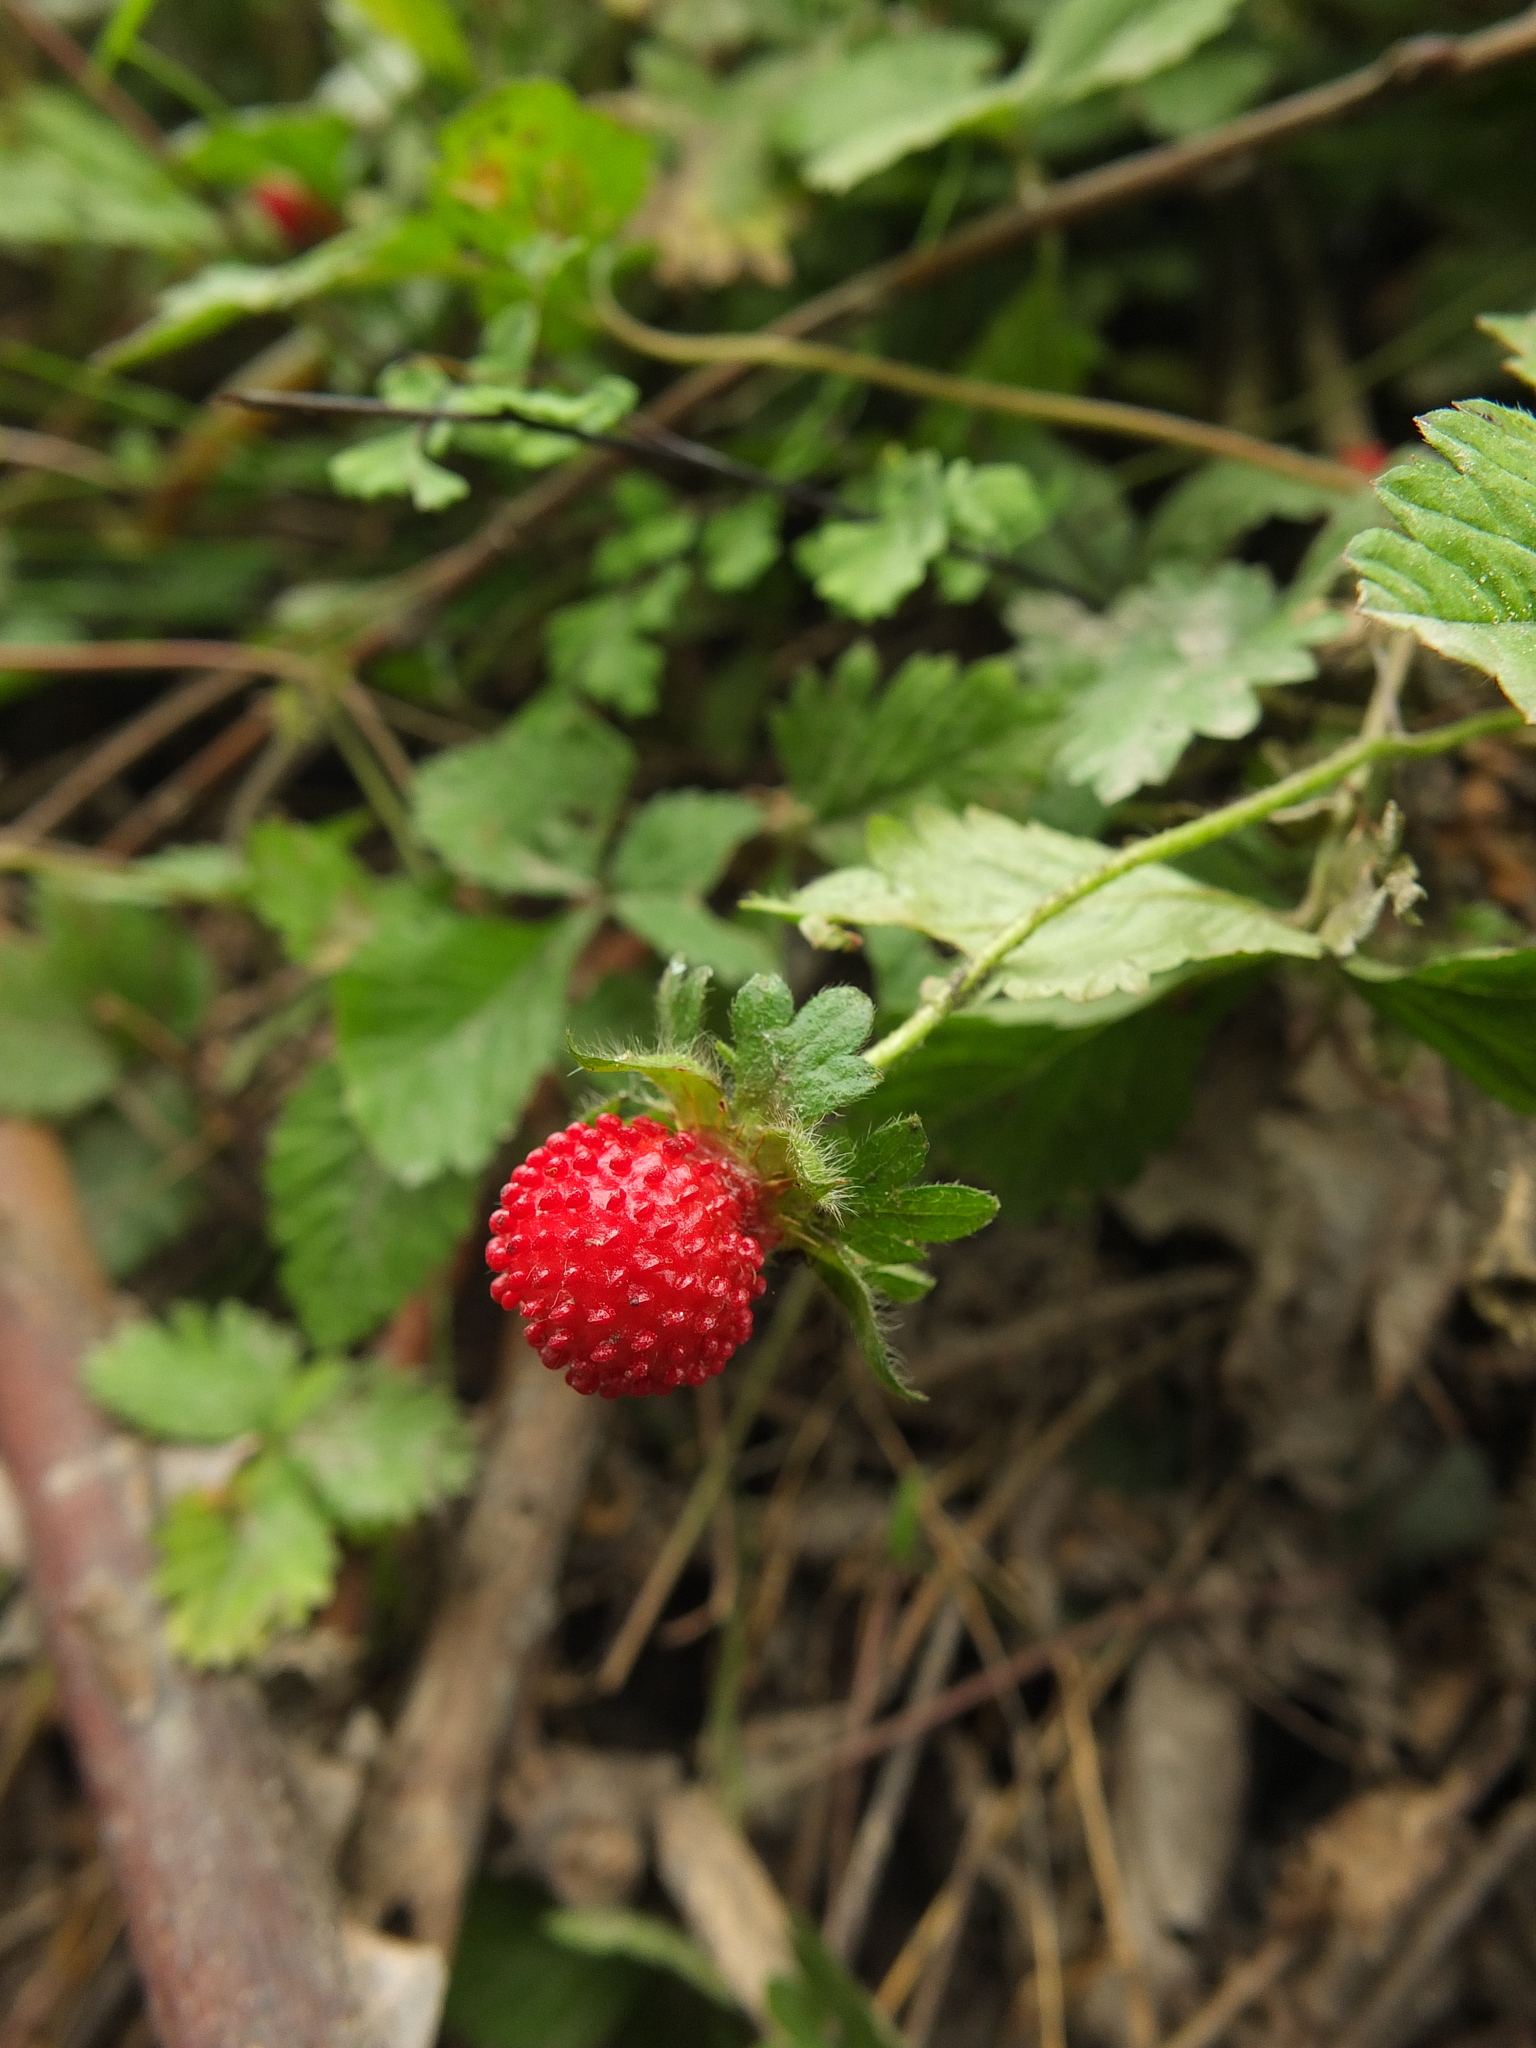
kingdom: Plantae
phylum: Tracheophyta
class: Magnoliopsida
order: Rosales
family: Rosaceae
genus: Potentilla
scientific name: Potentilla indica
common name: Yellow-flowered strawberry
